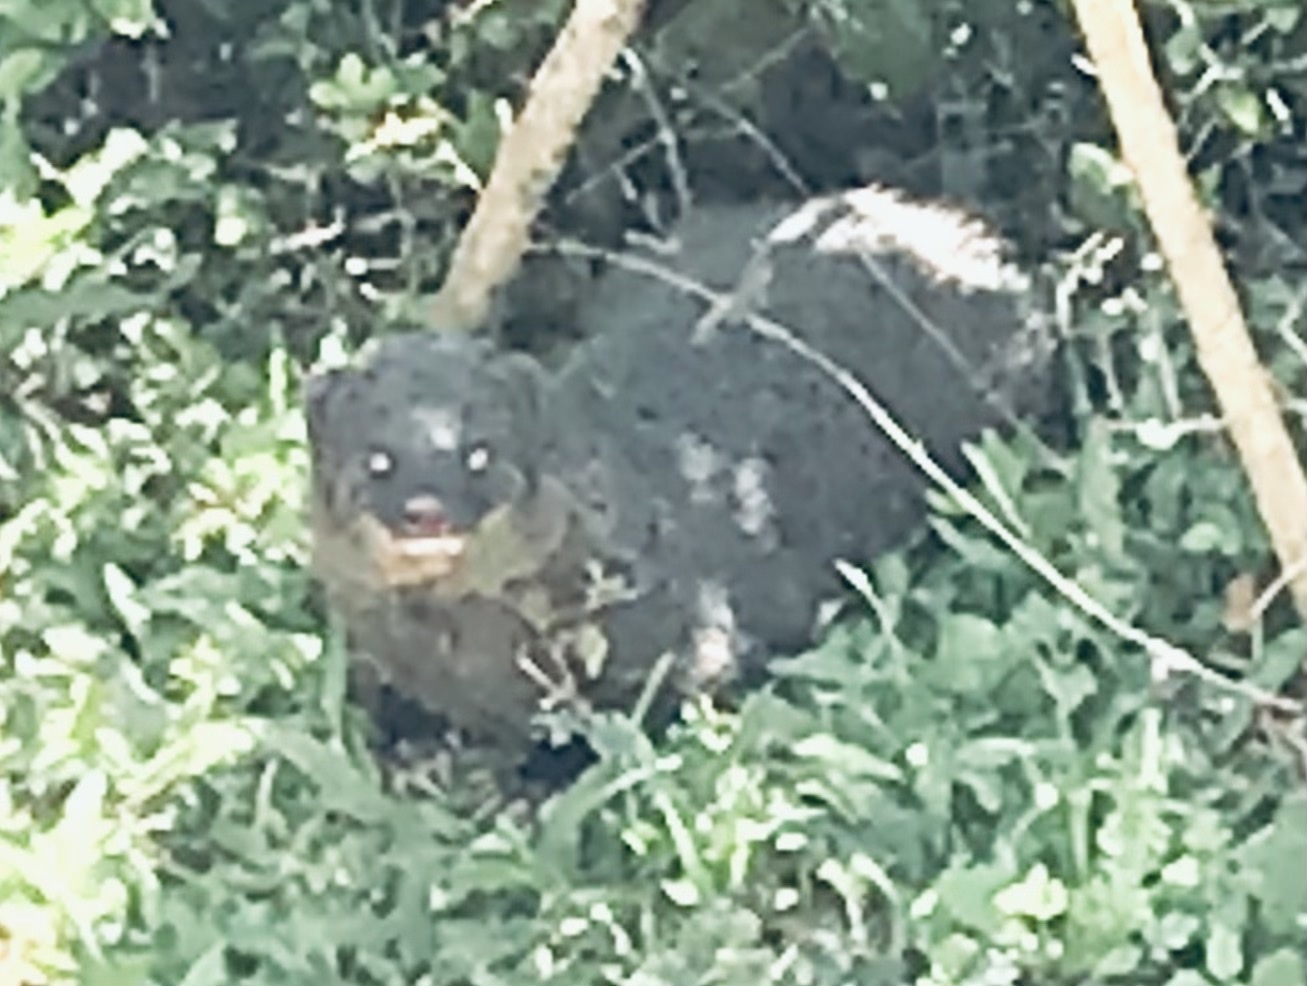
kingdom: Animalia
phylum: Chordata
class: Mammalia
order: Carnivora
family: Herpestidae
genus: Herpestes
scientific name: Herpestes fuscus
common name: Indian brown mongoose
